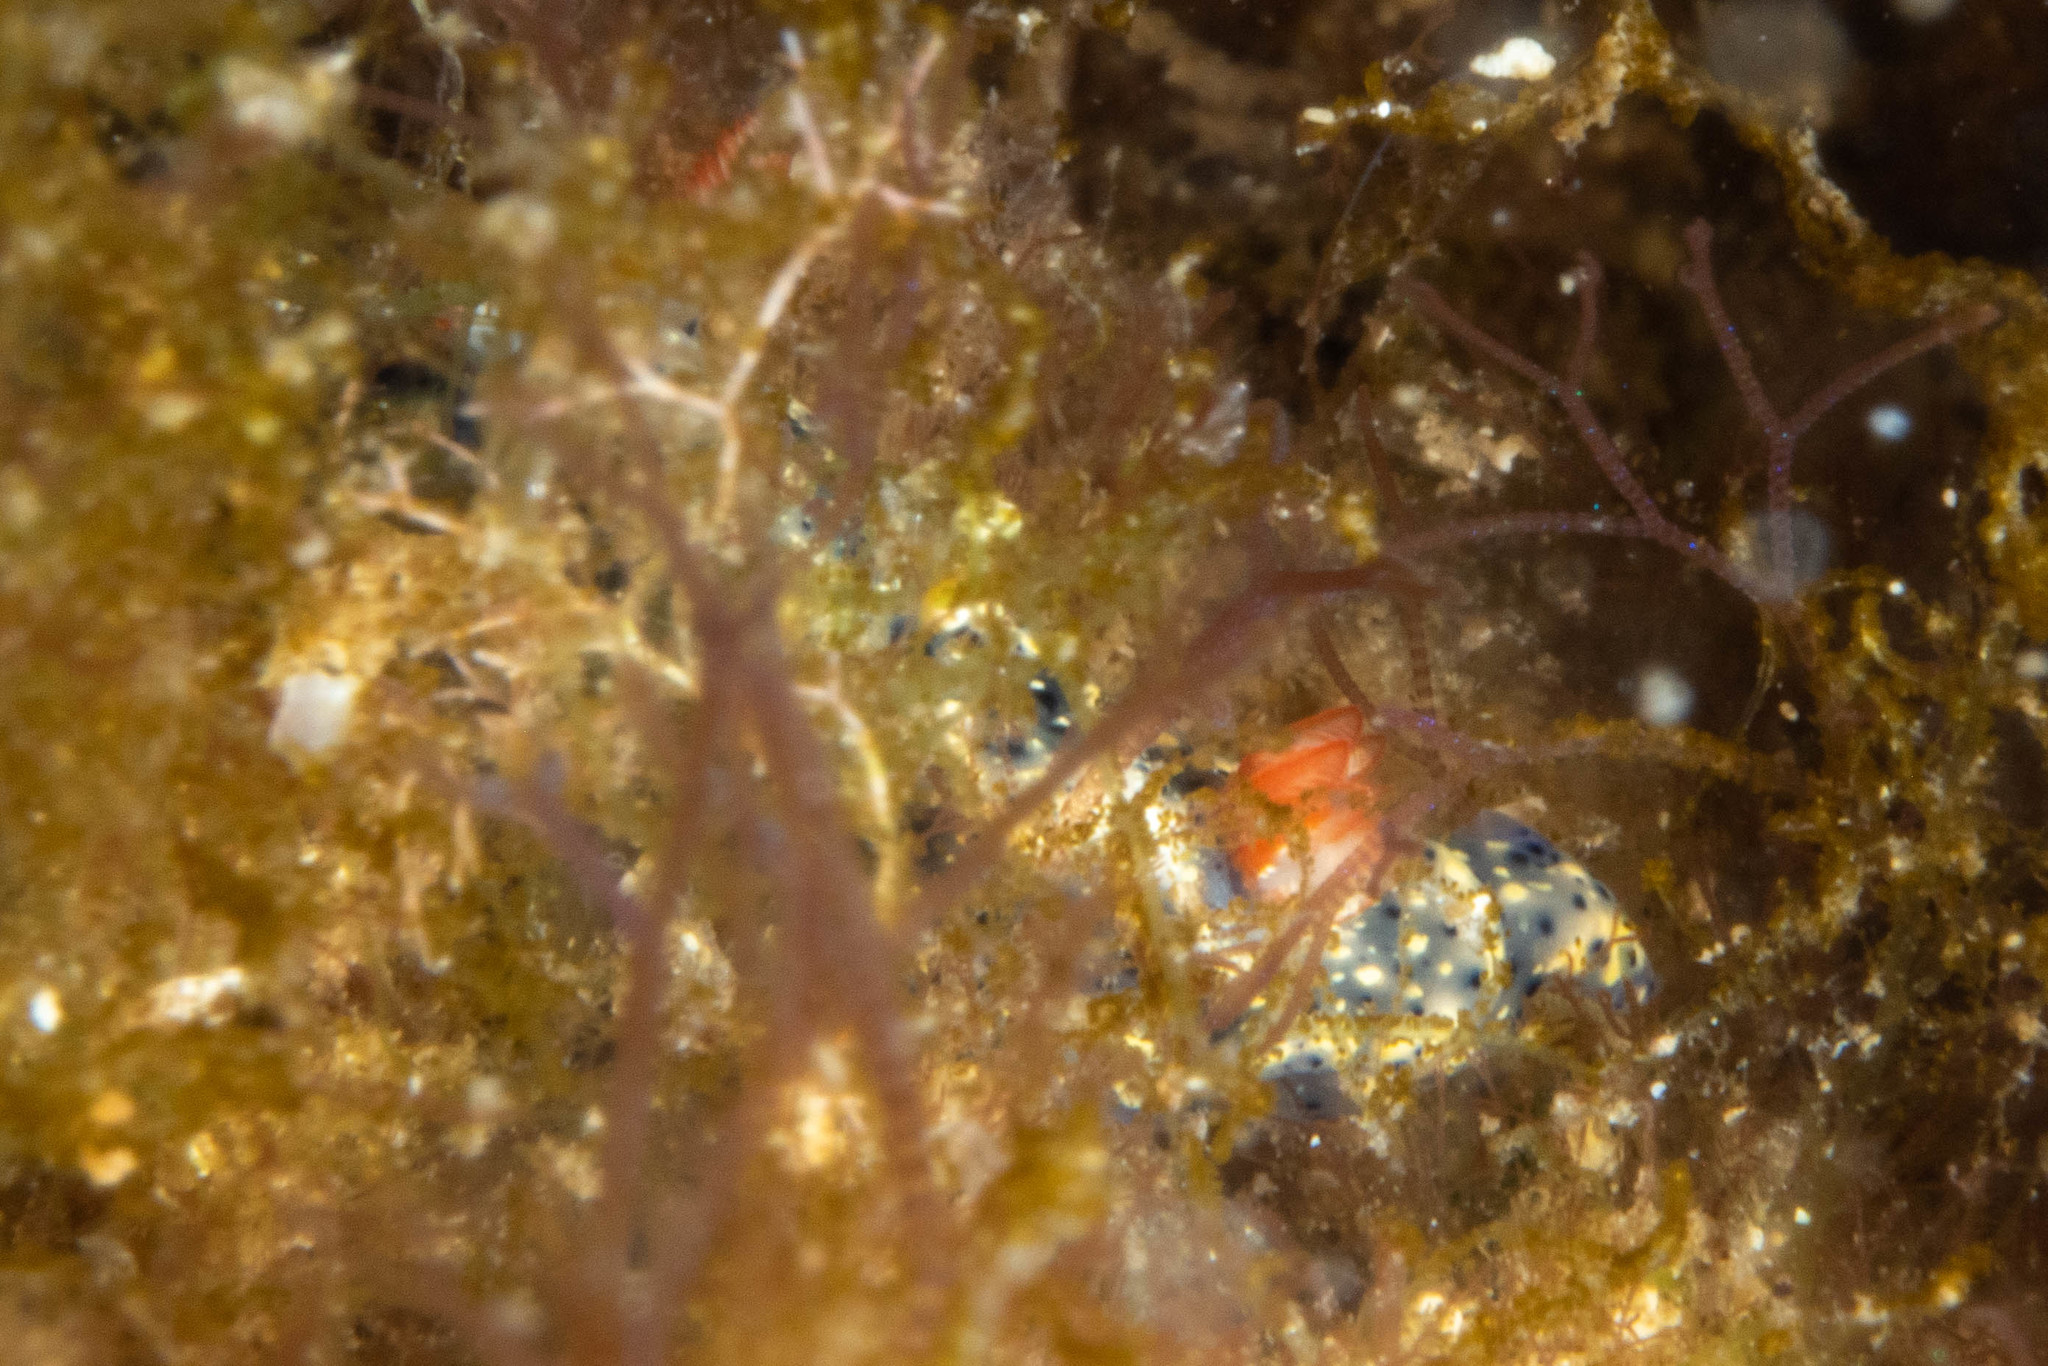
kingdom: Animalia
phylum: Mollusca
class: Gastropoda
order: Nudibranchia
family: Chromodorididae
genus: Hypselodoris
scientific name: Hypselodoris saintvincentius
